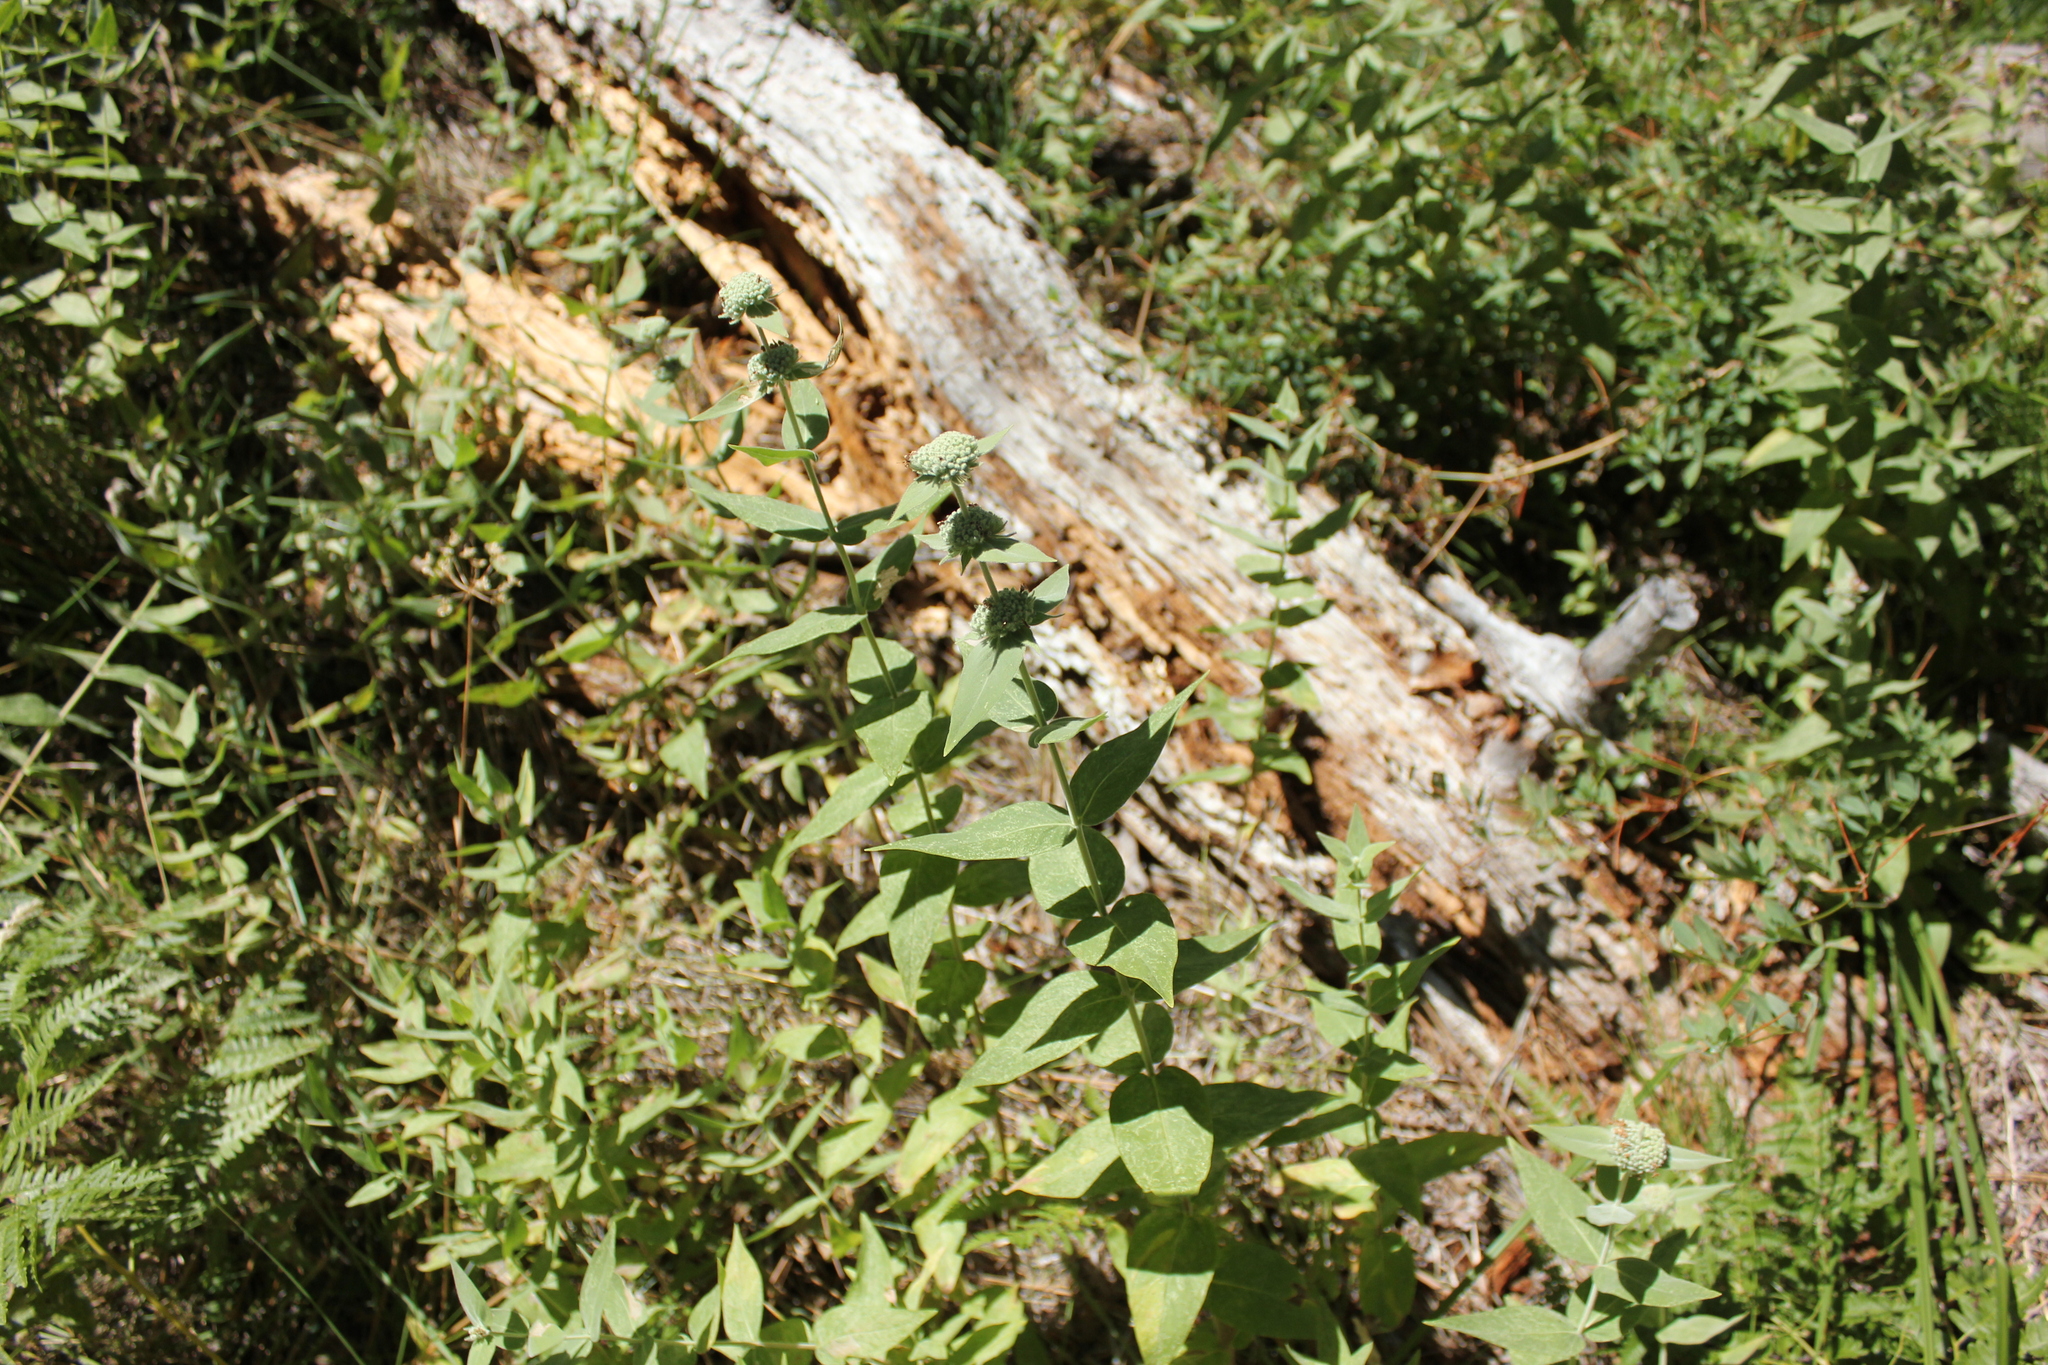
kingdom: Plantae
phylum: Tracheophyta
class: Magnoliopsida
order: Lamiales
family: Lamiaceae
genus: Pycnanthemum
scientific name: Pycnanthemum californicum
